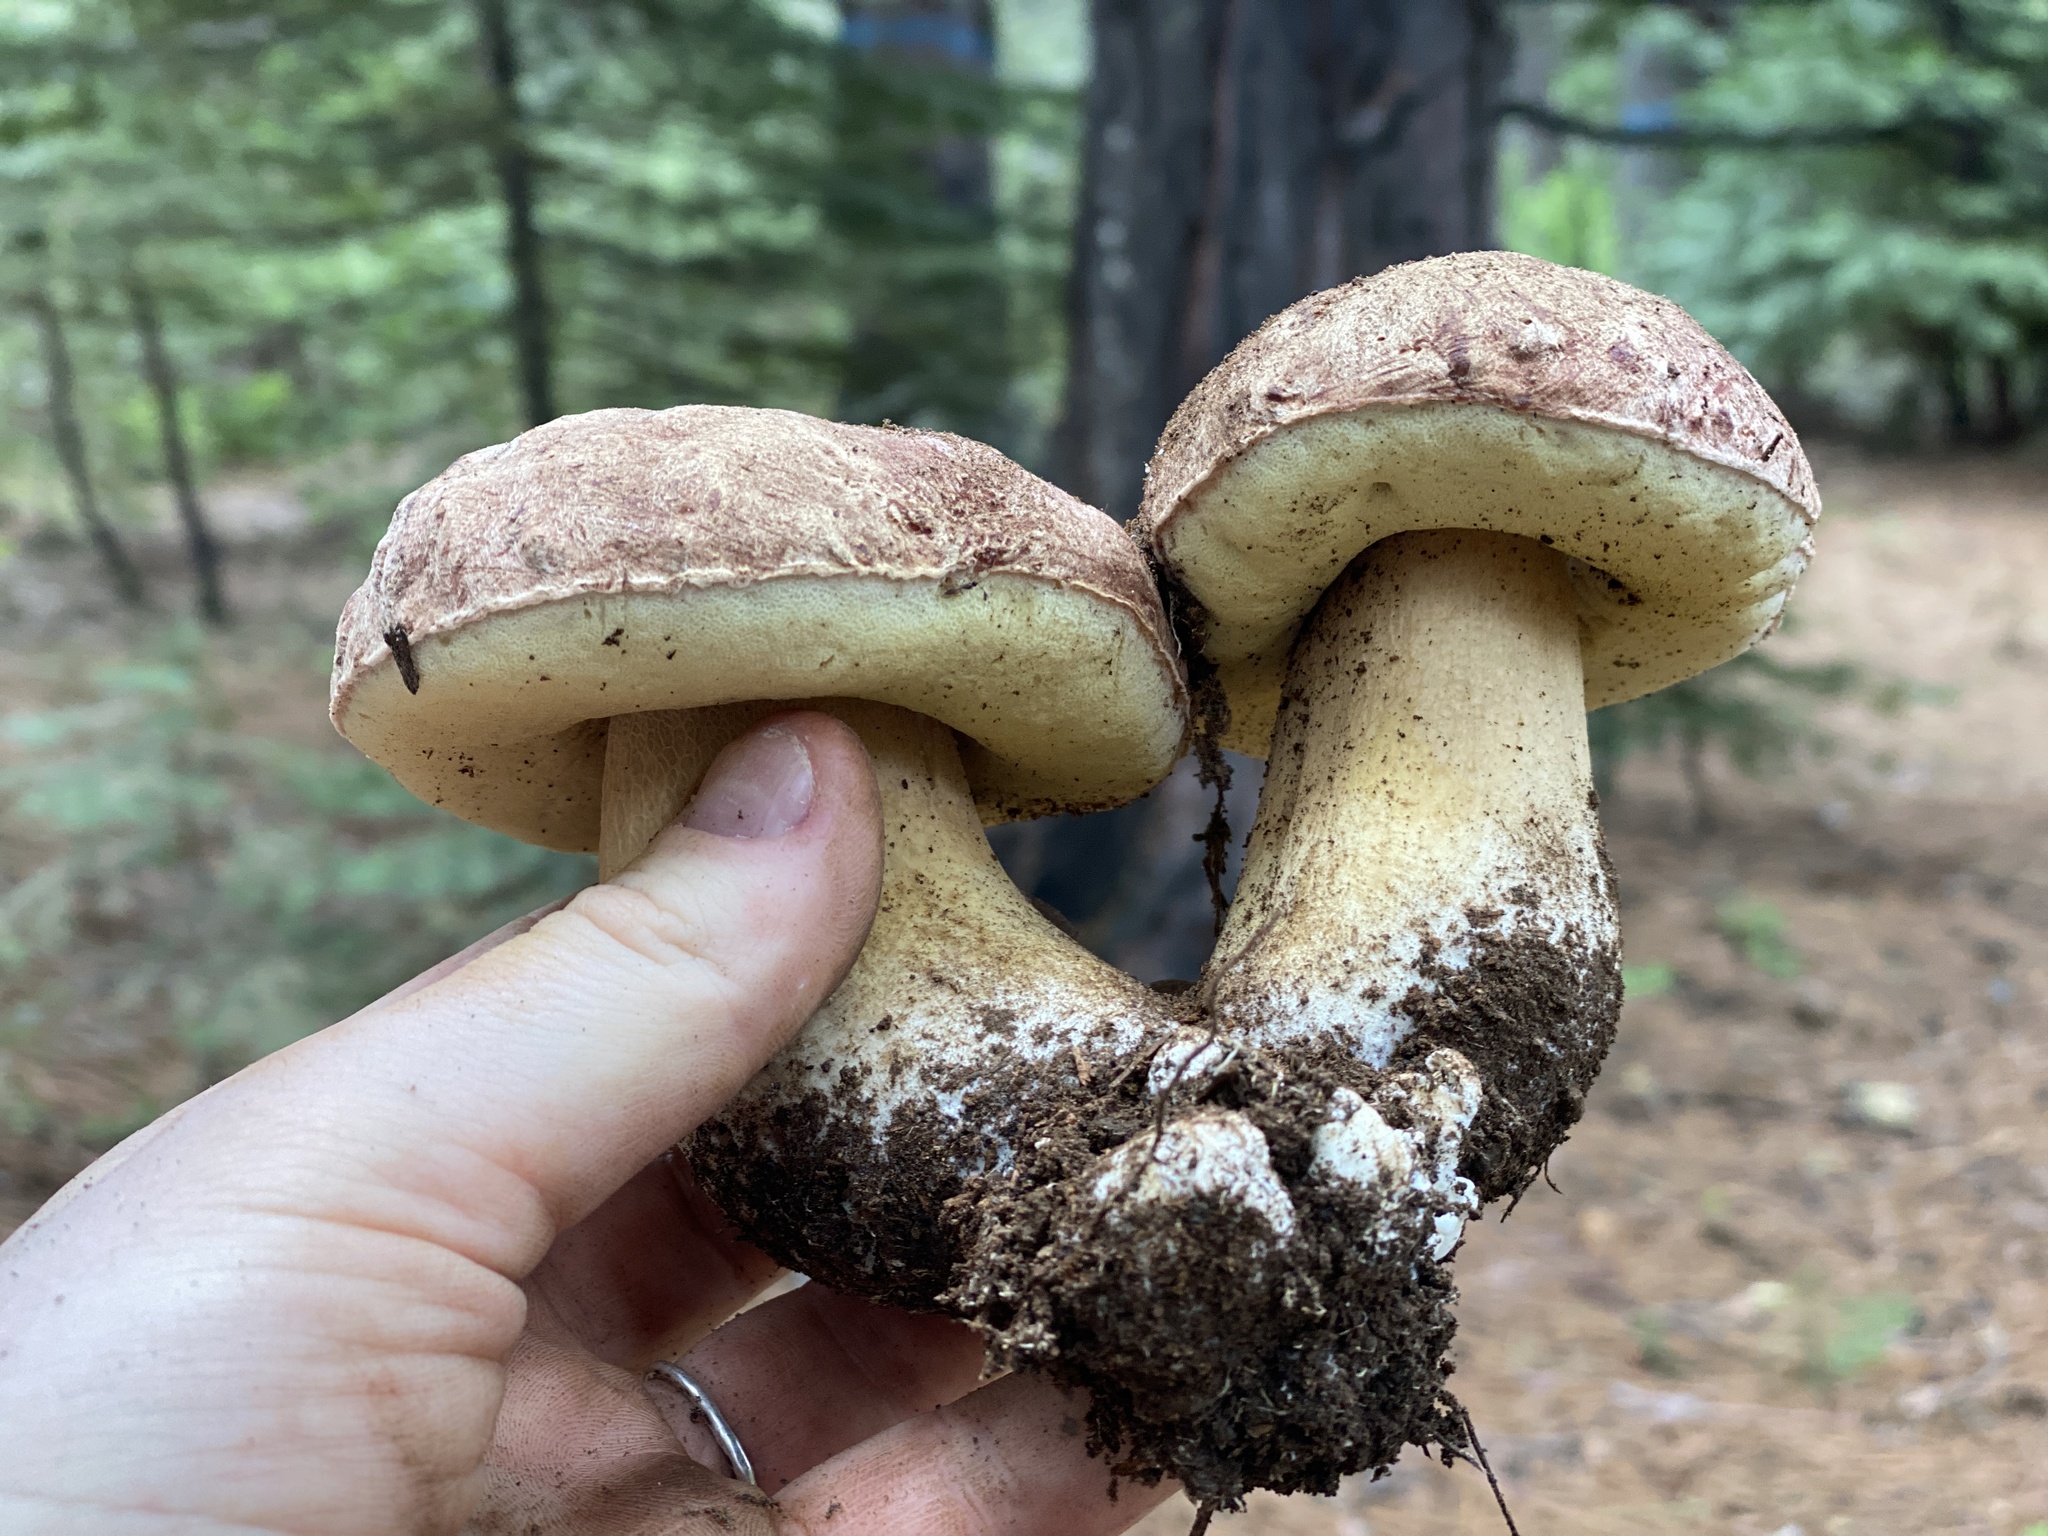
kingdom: Fungi
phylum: Basidiomycota
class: Agaricomycetes
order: Boletales
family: Boletaceae
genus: Boletus
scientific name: Boletus rex-veris
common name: Spring king
